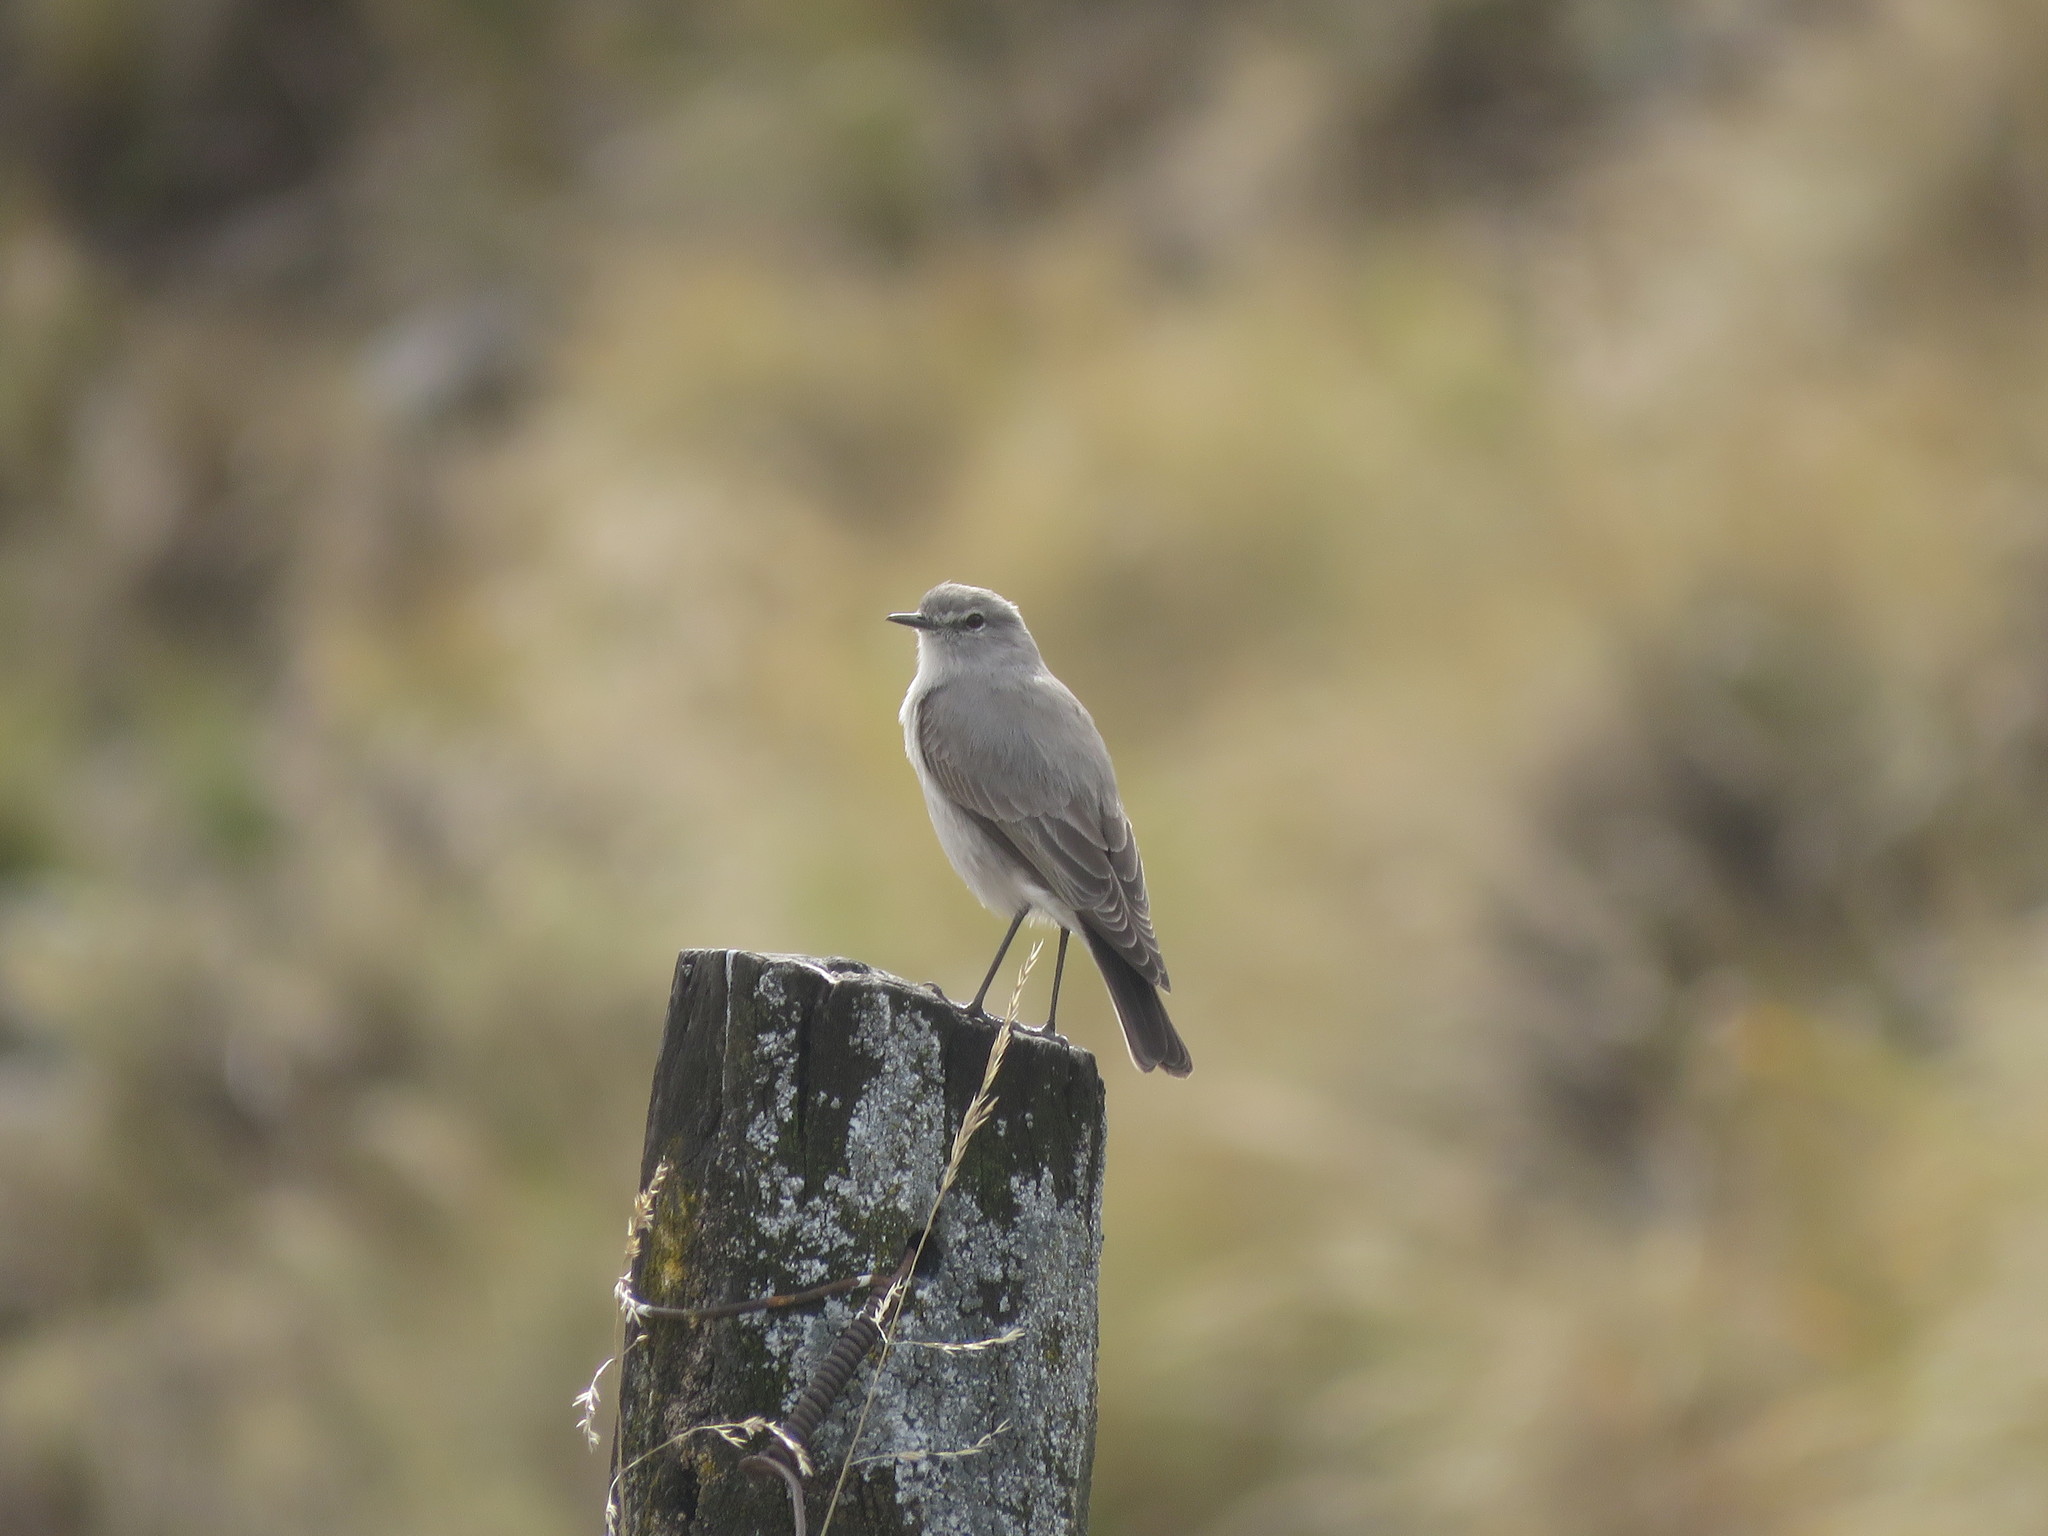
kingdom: Animalia
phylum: Chordata
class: Aves
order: Passeriformes
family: Tyrannidae
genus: Muscisaxicola
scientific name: Muscisaxicola cinereus
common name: Cinereous ground tyrant
